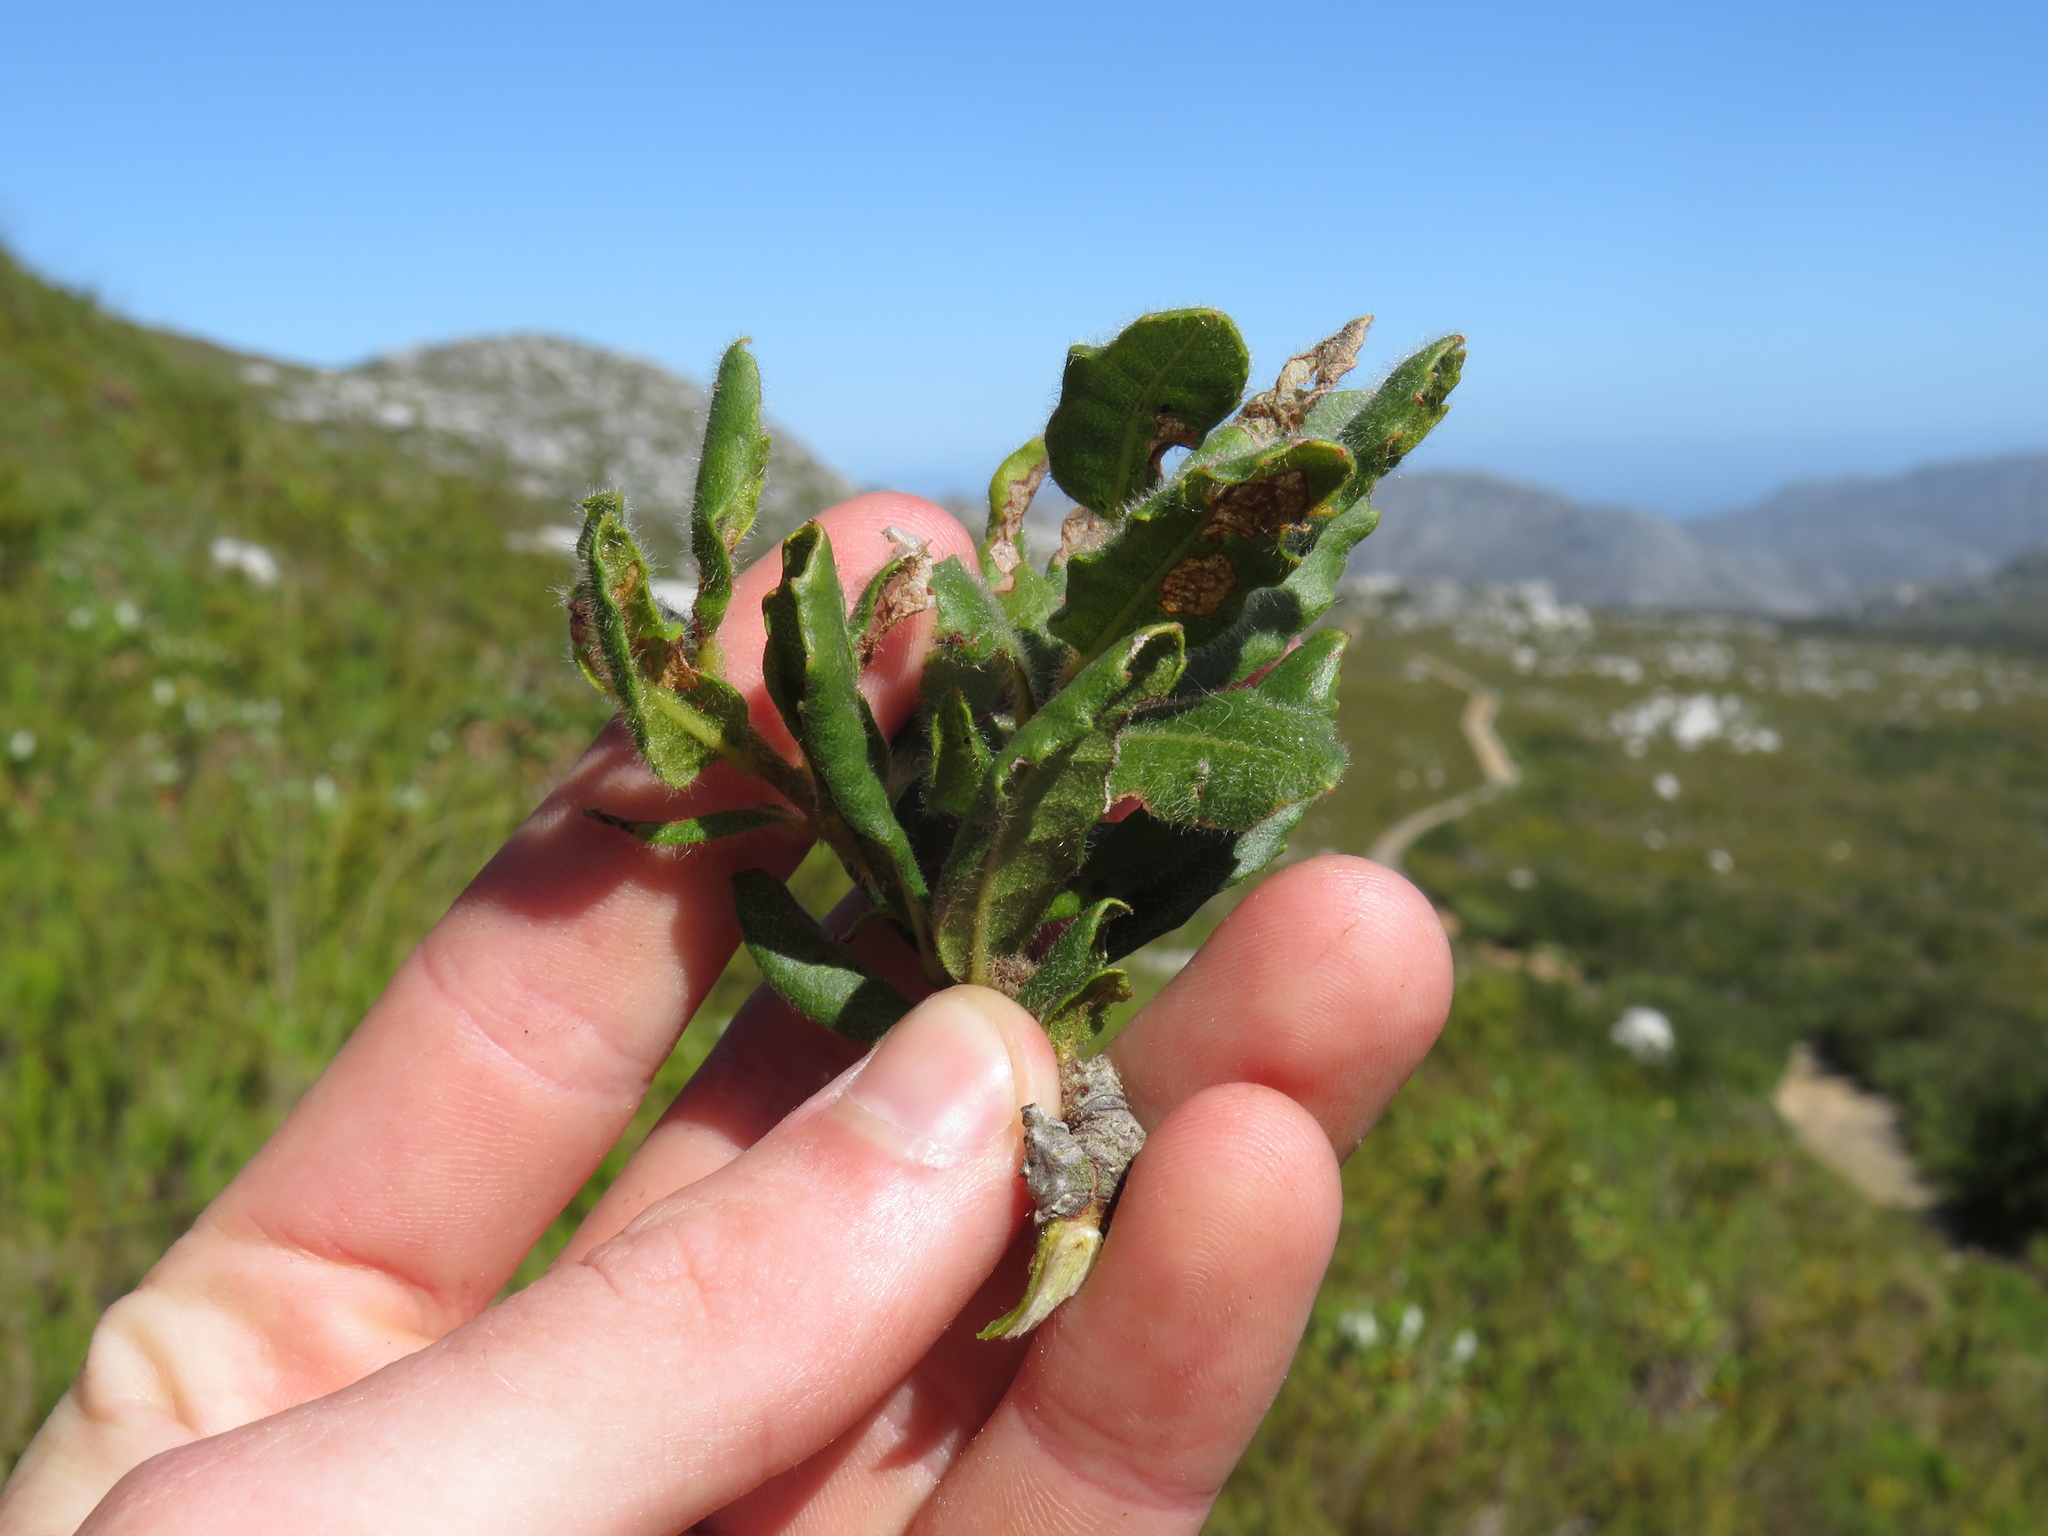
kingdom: Plantae
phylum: Tracheophyta
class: Magnoliopsida
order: Fagales
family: Myricaceae
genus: Morella
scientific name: Morella kraussiana
